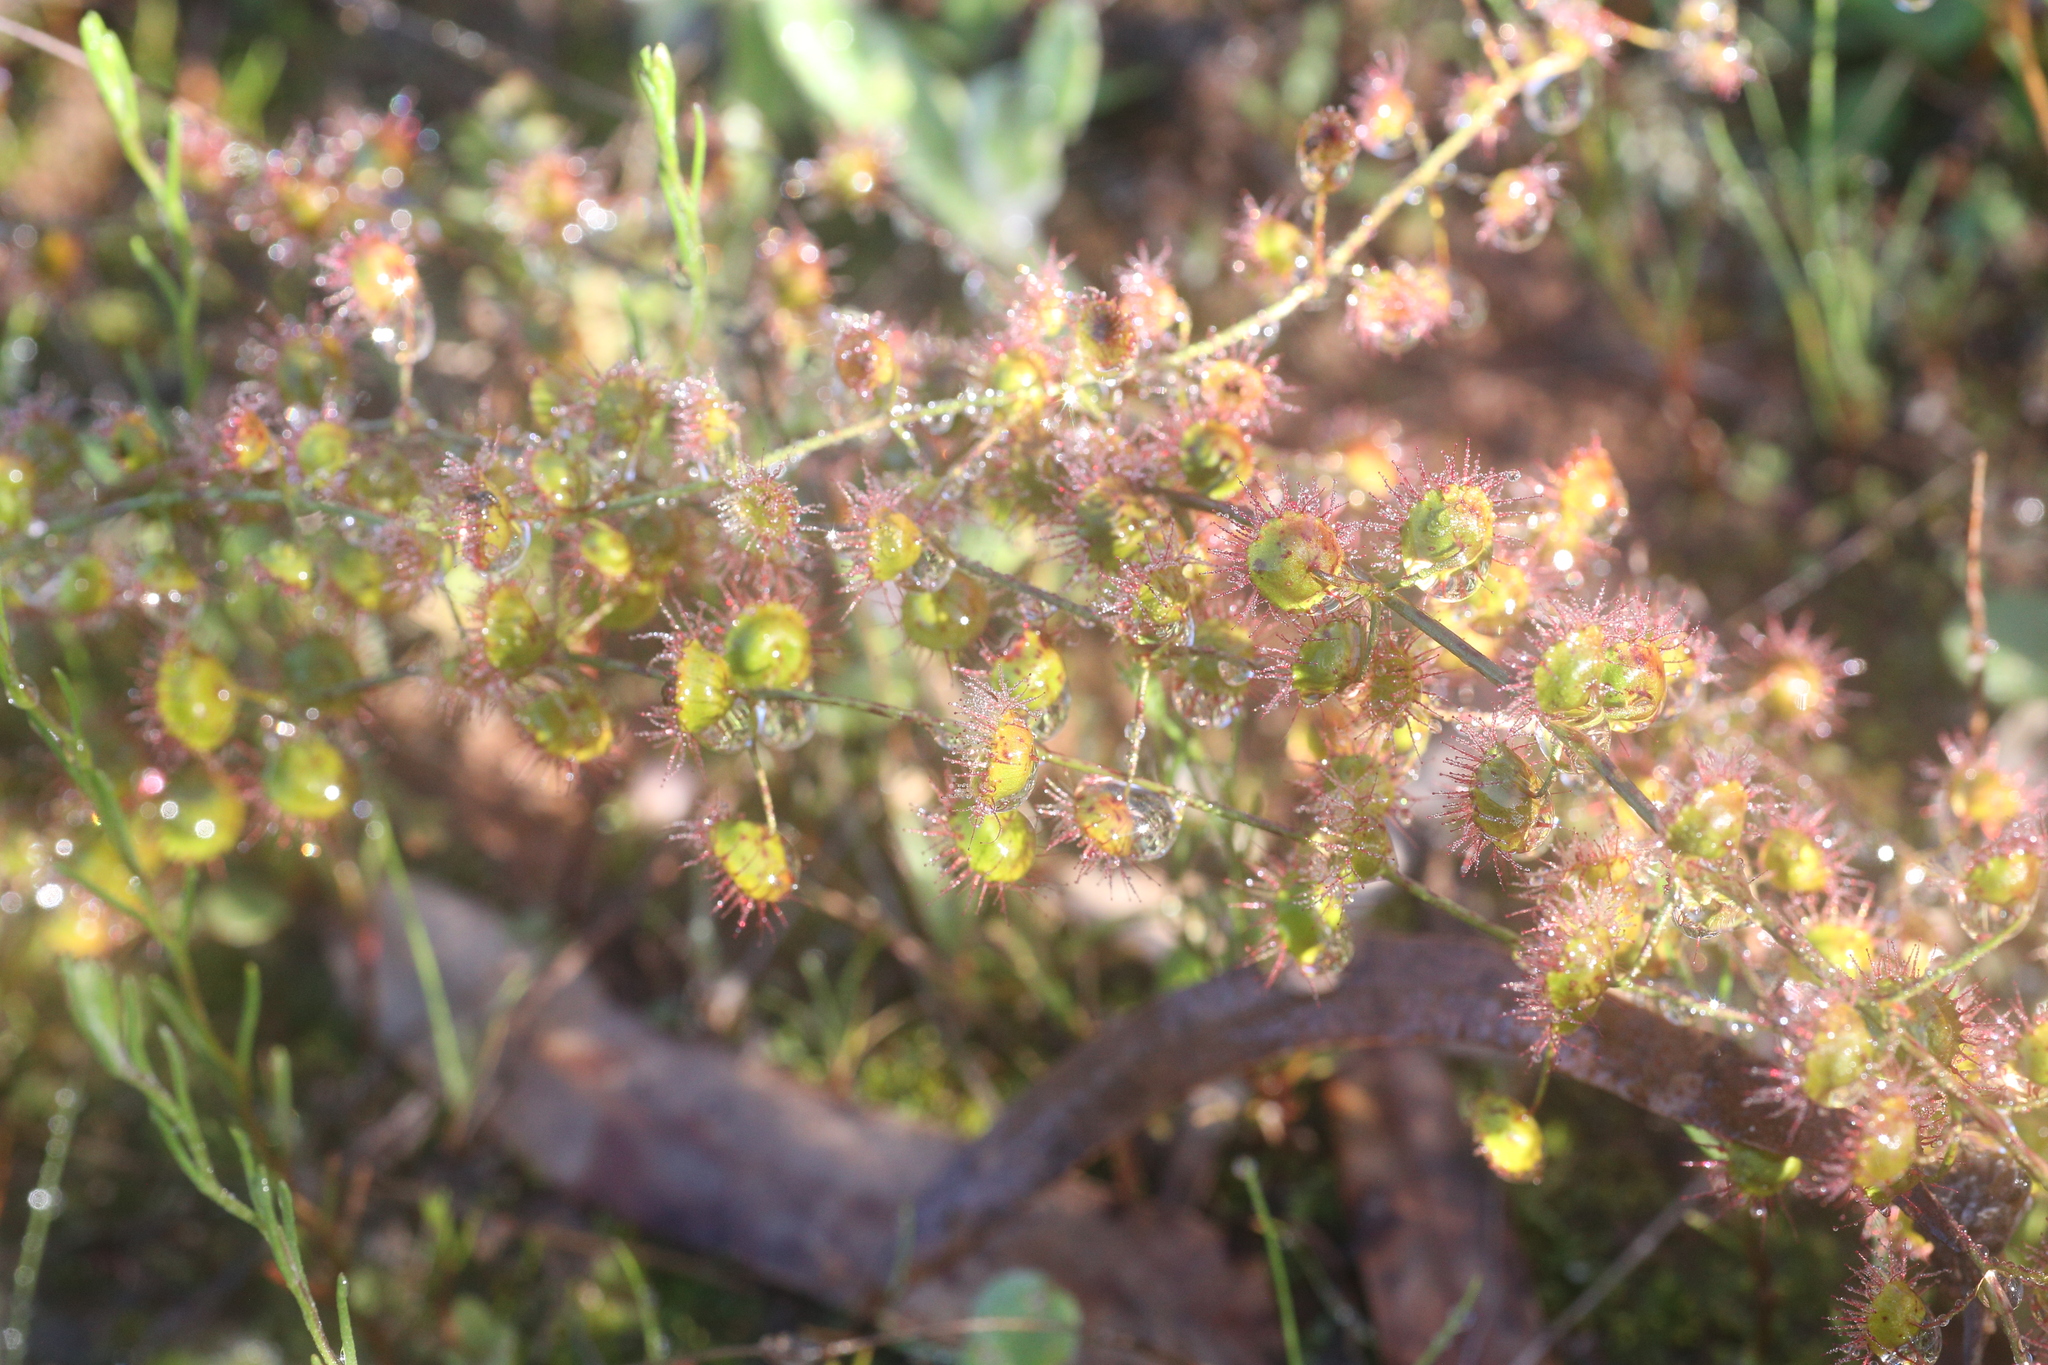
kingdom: Plantae
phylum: Tracheophyta
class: Magnoliopsida
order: Caryophyllales
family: Droseraceae
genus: Drosera
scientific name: Drosera macrantha
